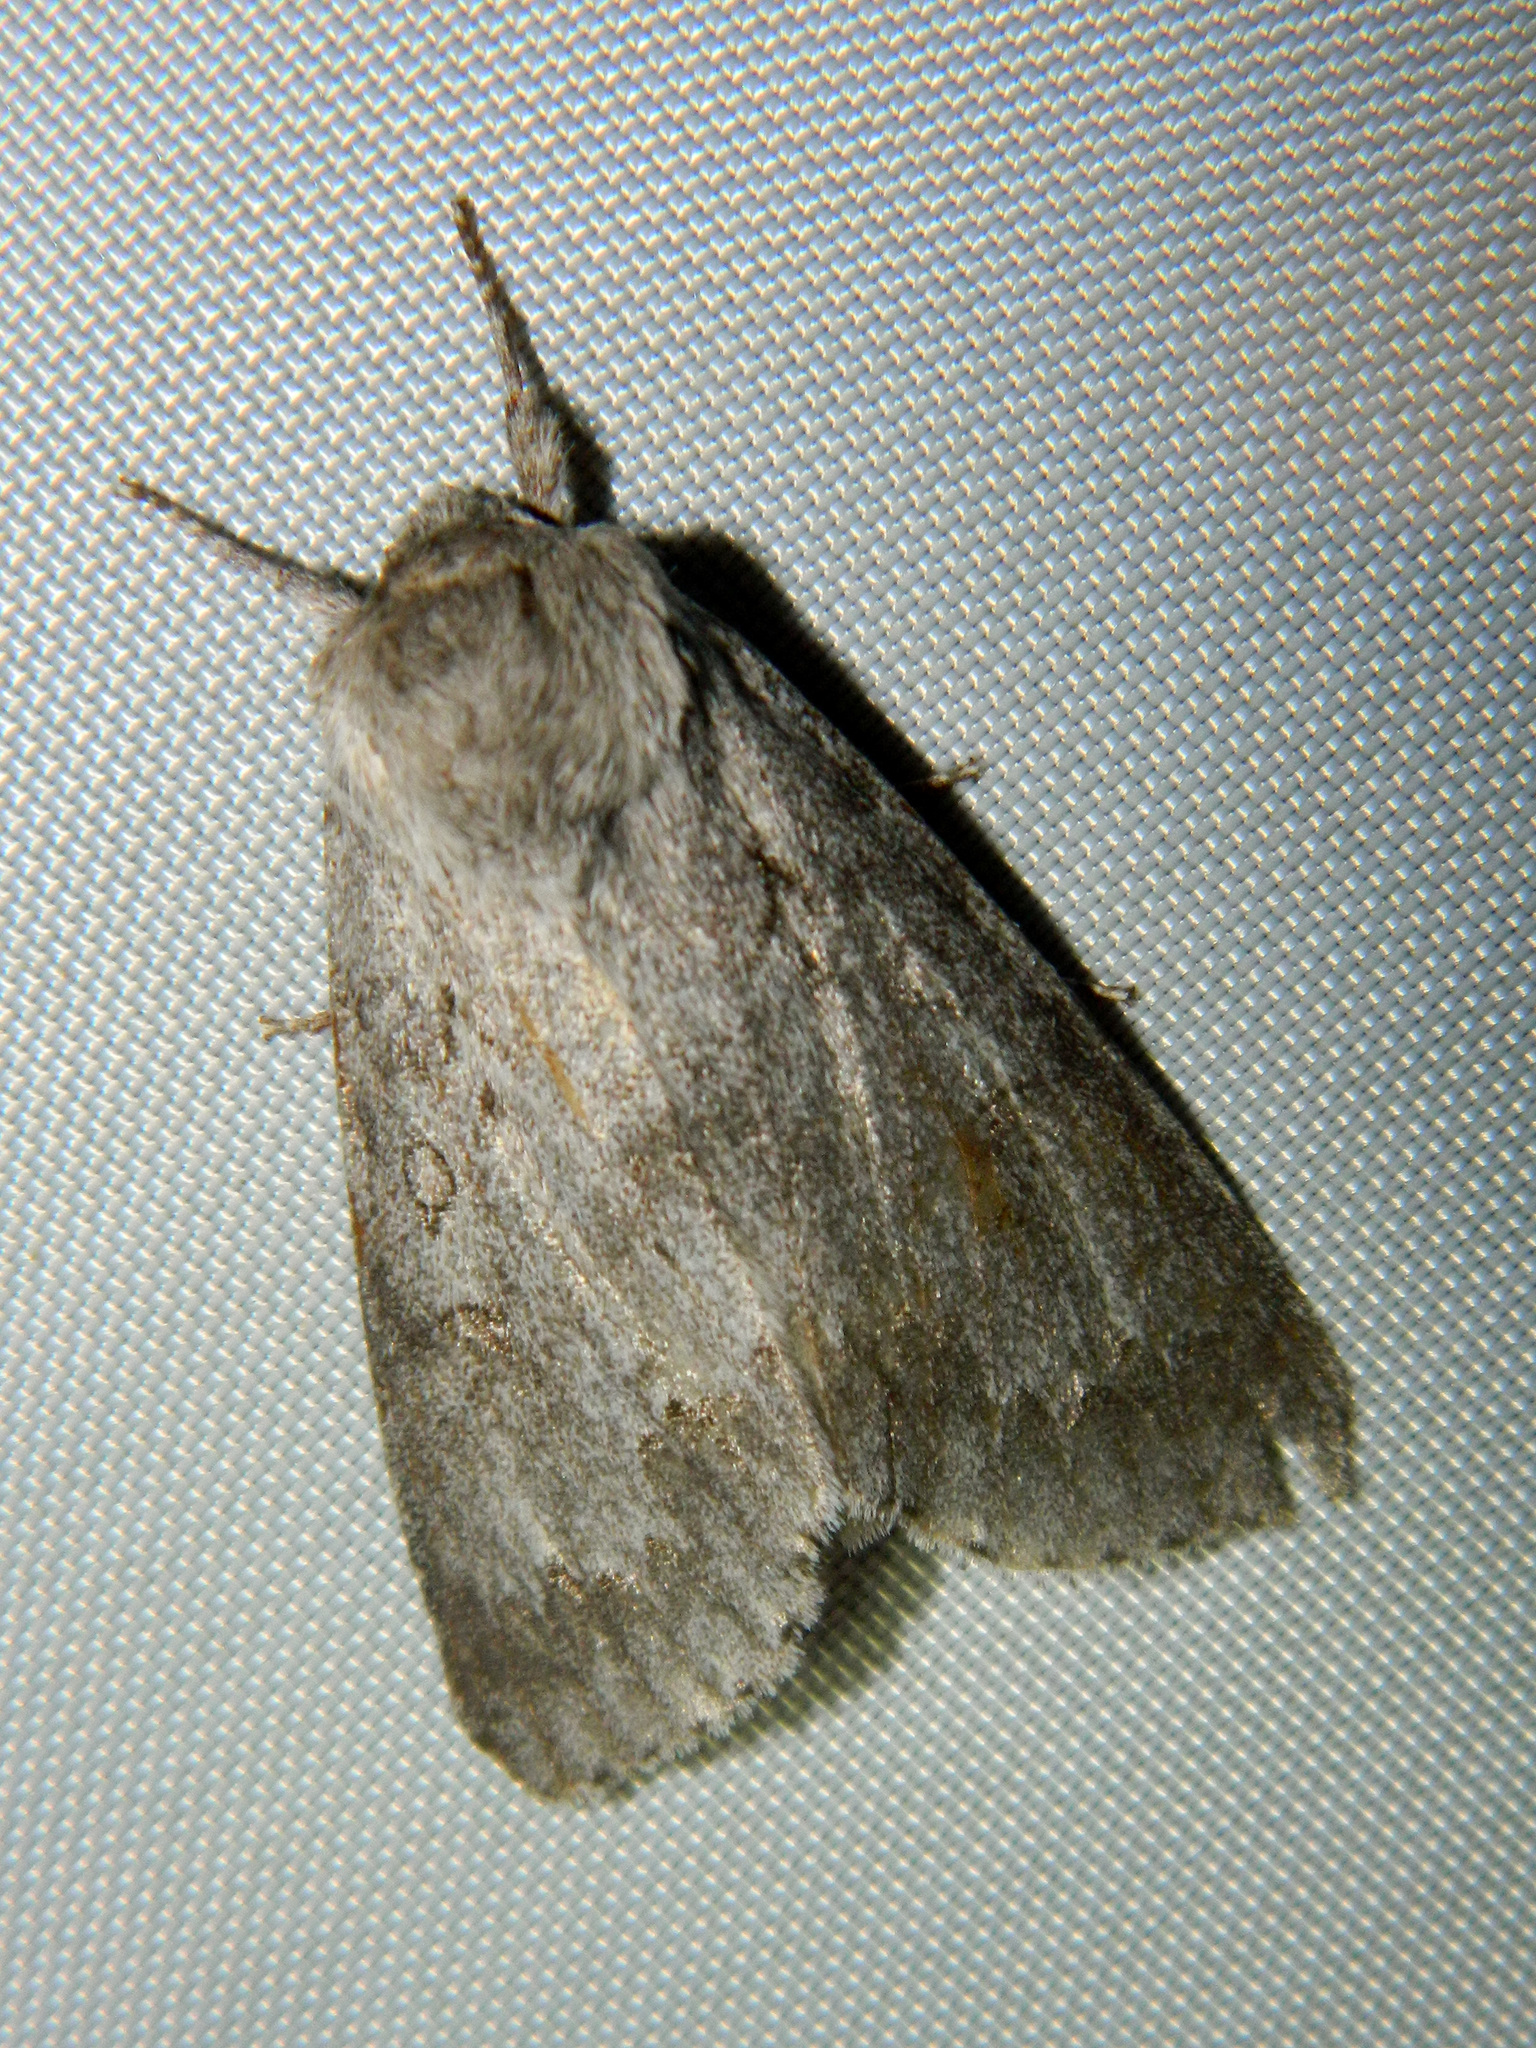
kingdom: Animalia
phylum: Arthropoda
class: Insecta
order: Lepidoptera
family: Noctuidae
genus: Acronicta
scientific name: Acronicta insita
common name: Large gray dagger
